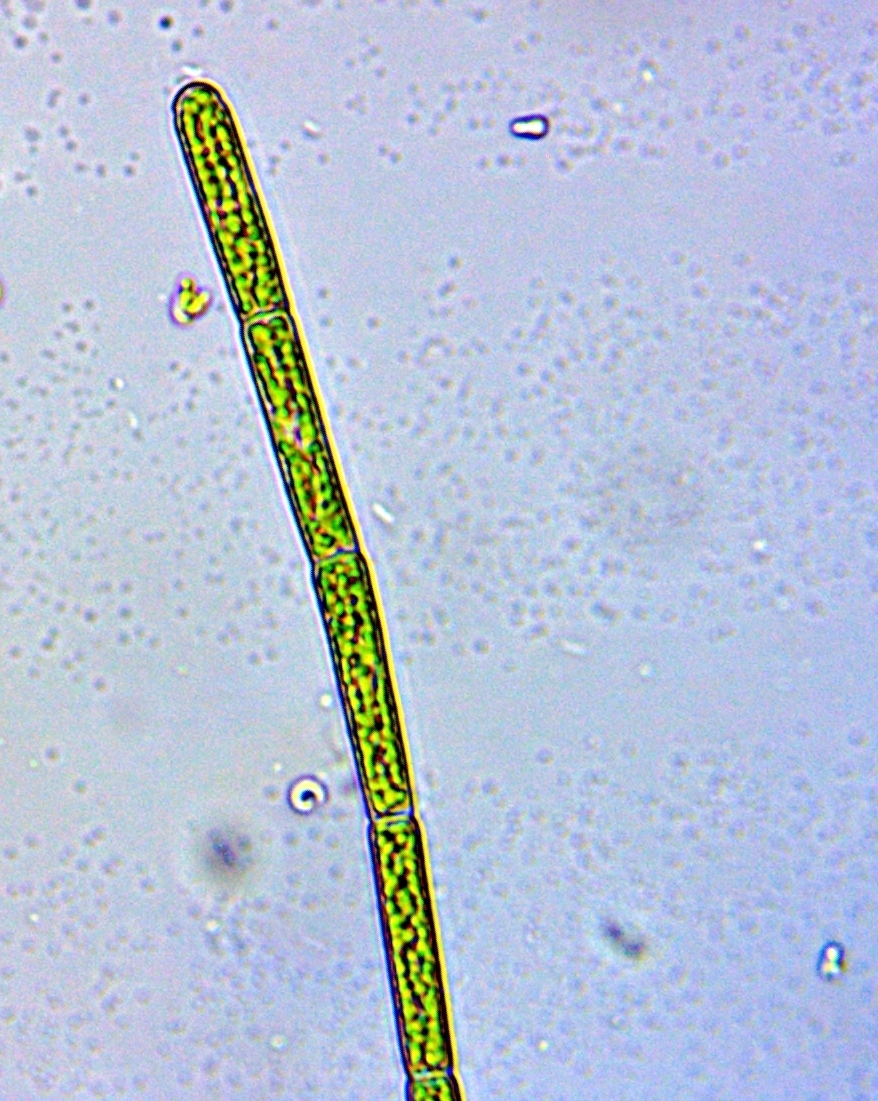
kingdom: Plantae
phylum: Chlorophyta
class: Chlorophyceae
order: Oedogoniales
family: Oedogoniaceae
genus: Oedogonium
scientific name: Oedogonium
